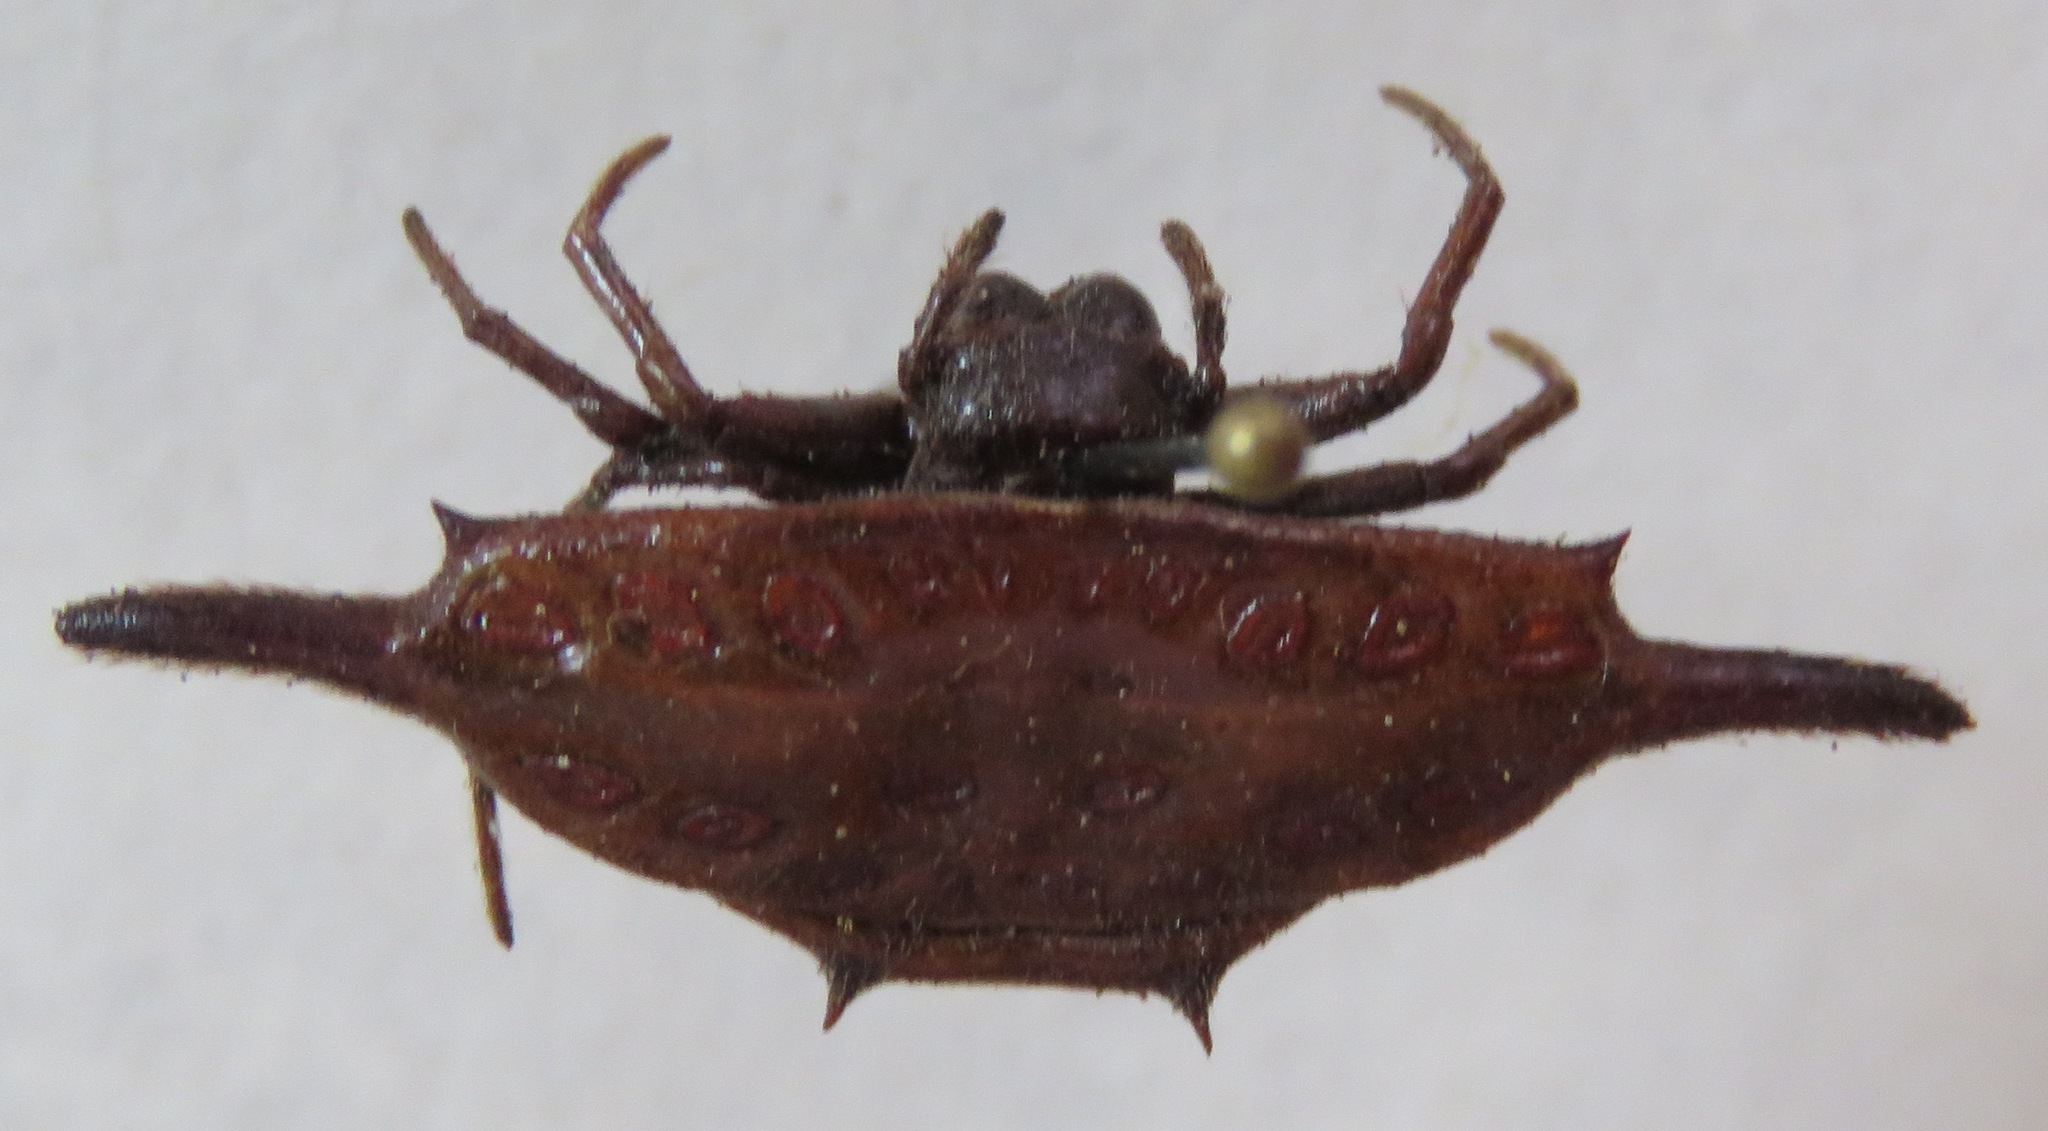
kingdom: Animalia
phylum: Arthropoda
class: Arachnida
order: Araneae
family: Araneidae
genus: Gasteracantha
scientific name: Gasteracantha diardi
